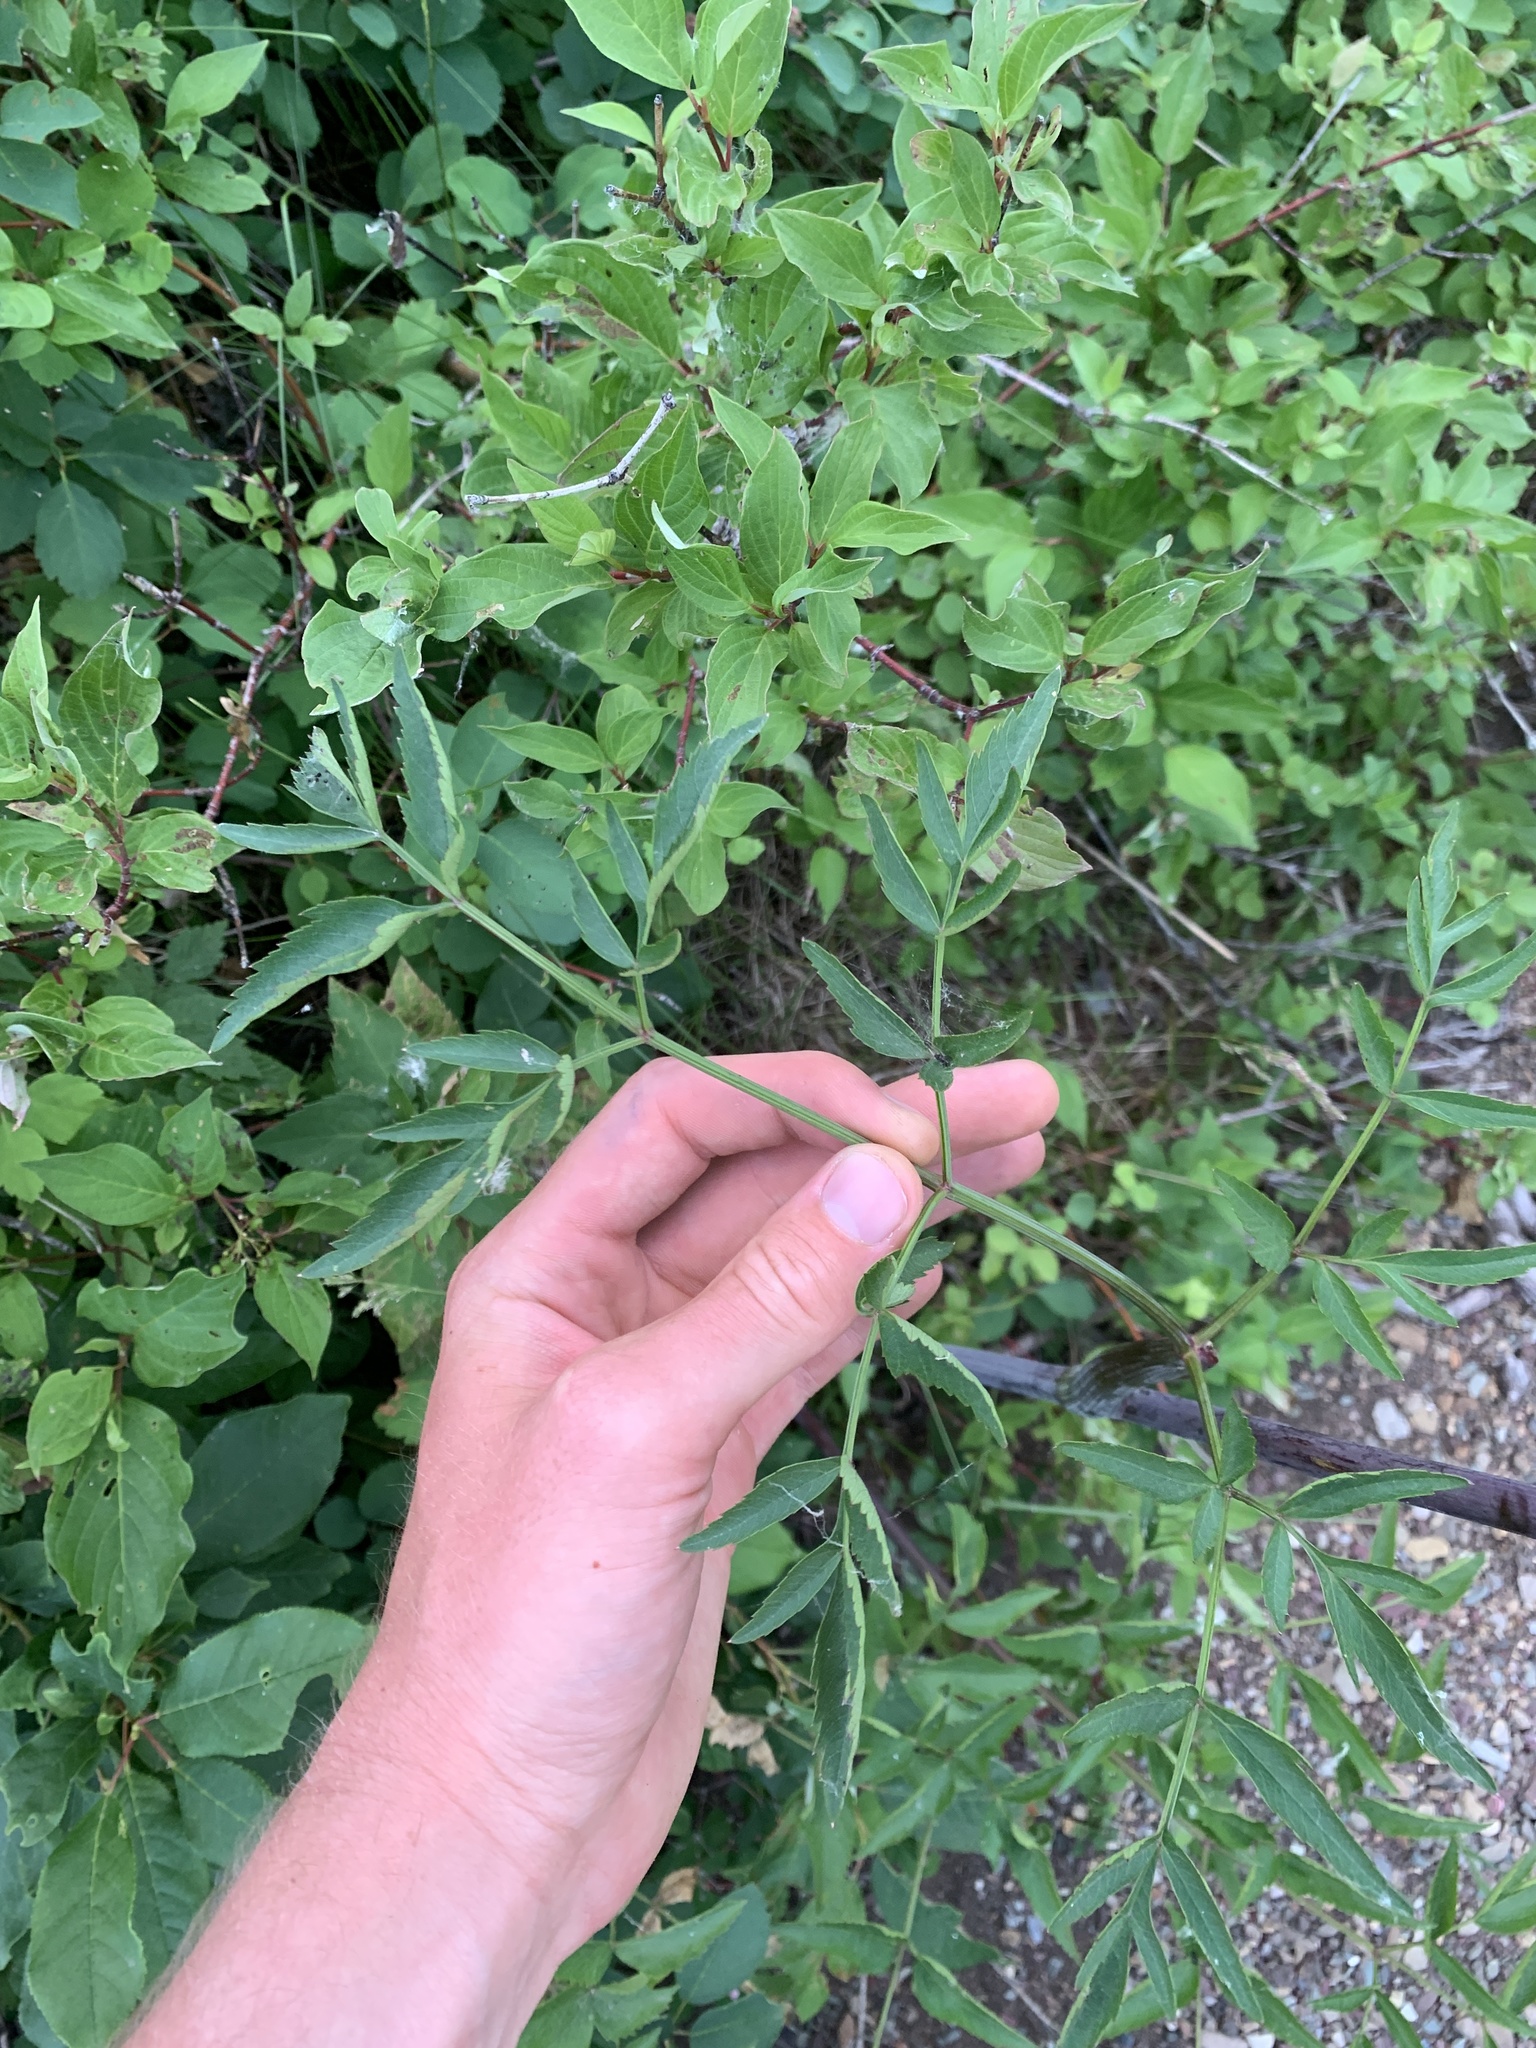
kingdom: Plantae
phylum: Tracheophyta
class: Magnoliopsida
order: Apiales
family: Apiaceae
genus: Angelica
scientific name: Angelica arguta
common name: Lyall's angelica
